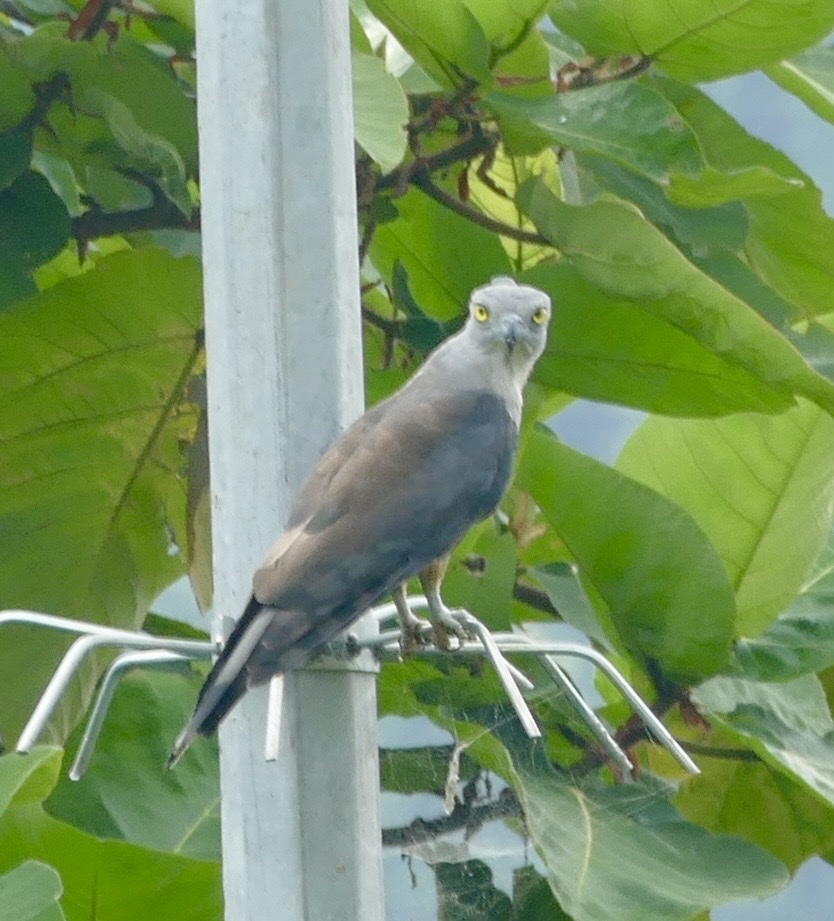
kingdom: Animalia
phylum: Chordata
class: Aves
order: Accipitriformes
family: Accipitridae
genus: Aviceda
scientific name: Aviceda subcristata
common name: Pacific baza
